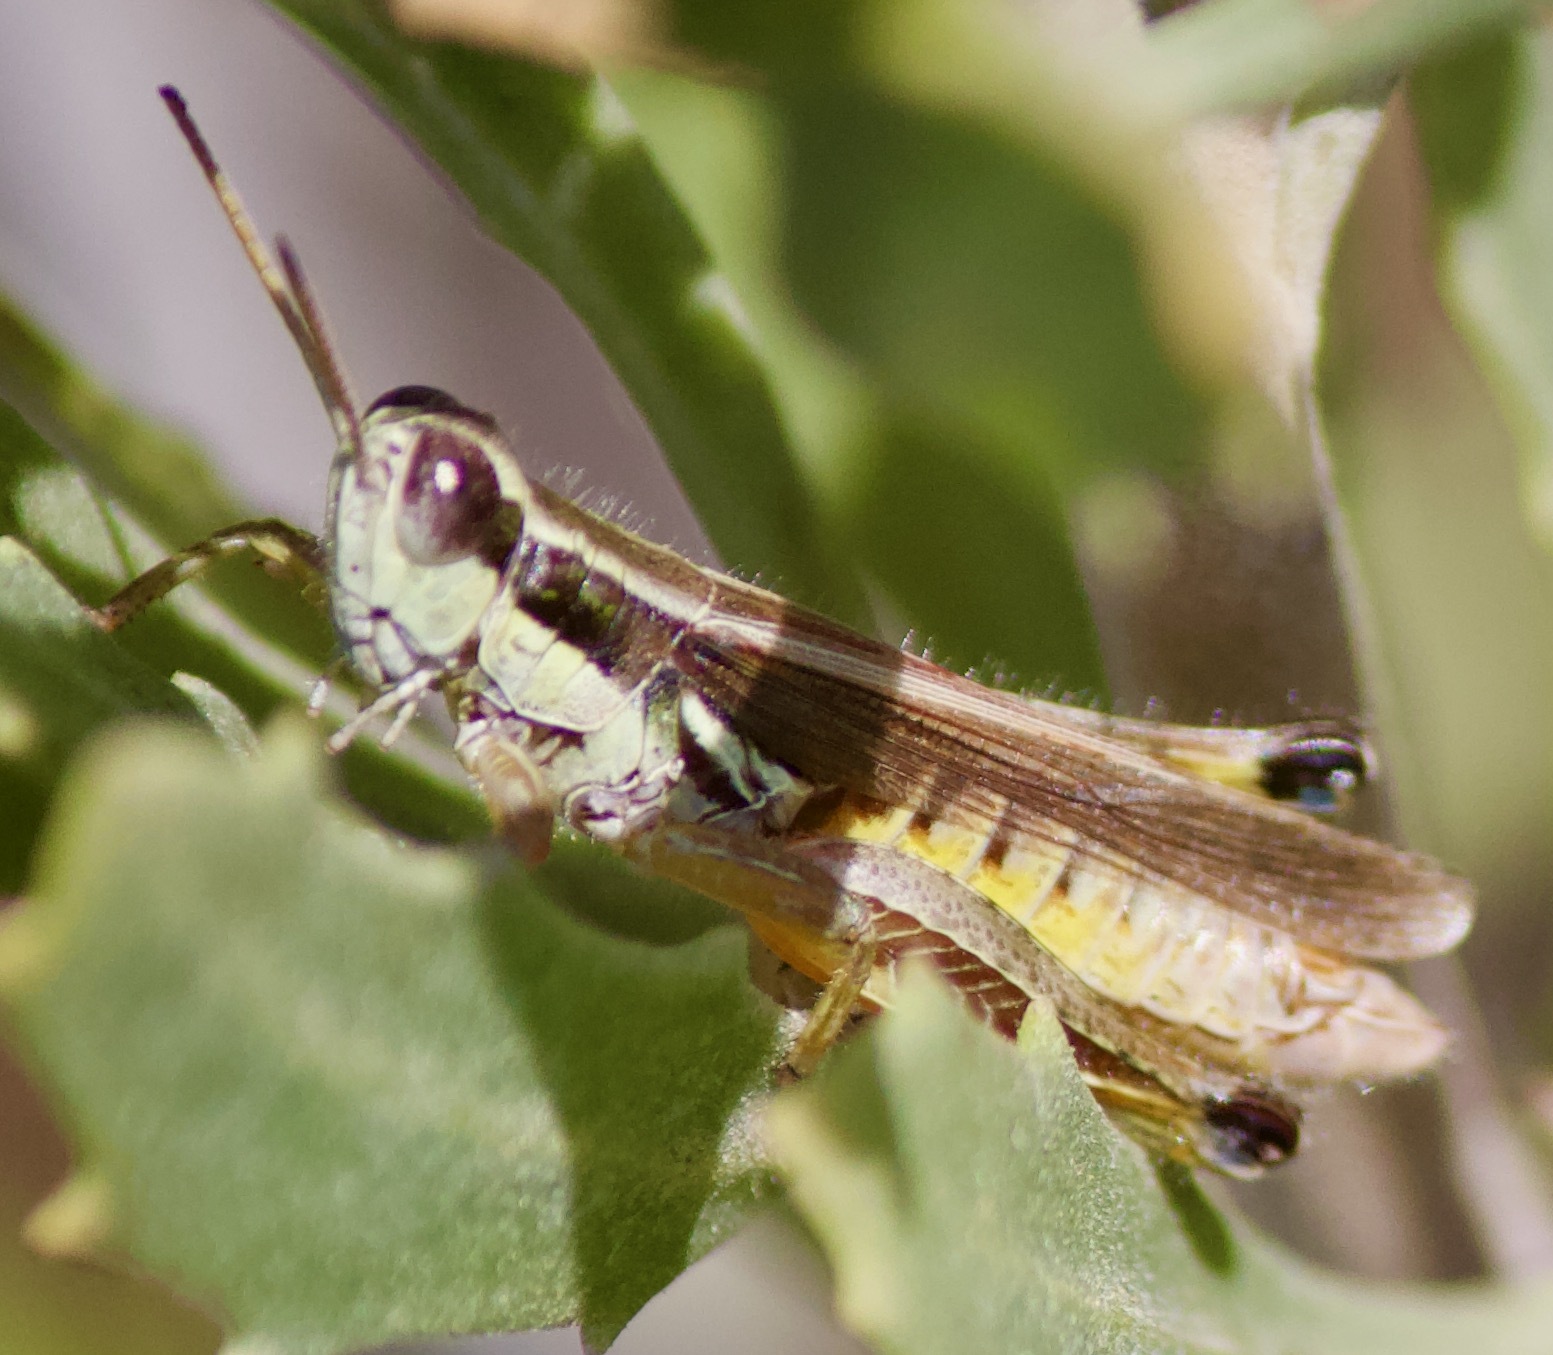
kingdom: Animalia
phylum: Arthropoda
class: Insecta
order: Orthoptera
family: Acrididae
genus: Dichroplus
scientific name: Dichroplus elongatus
